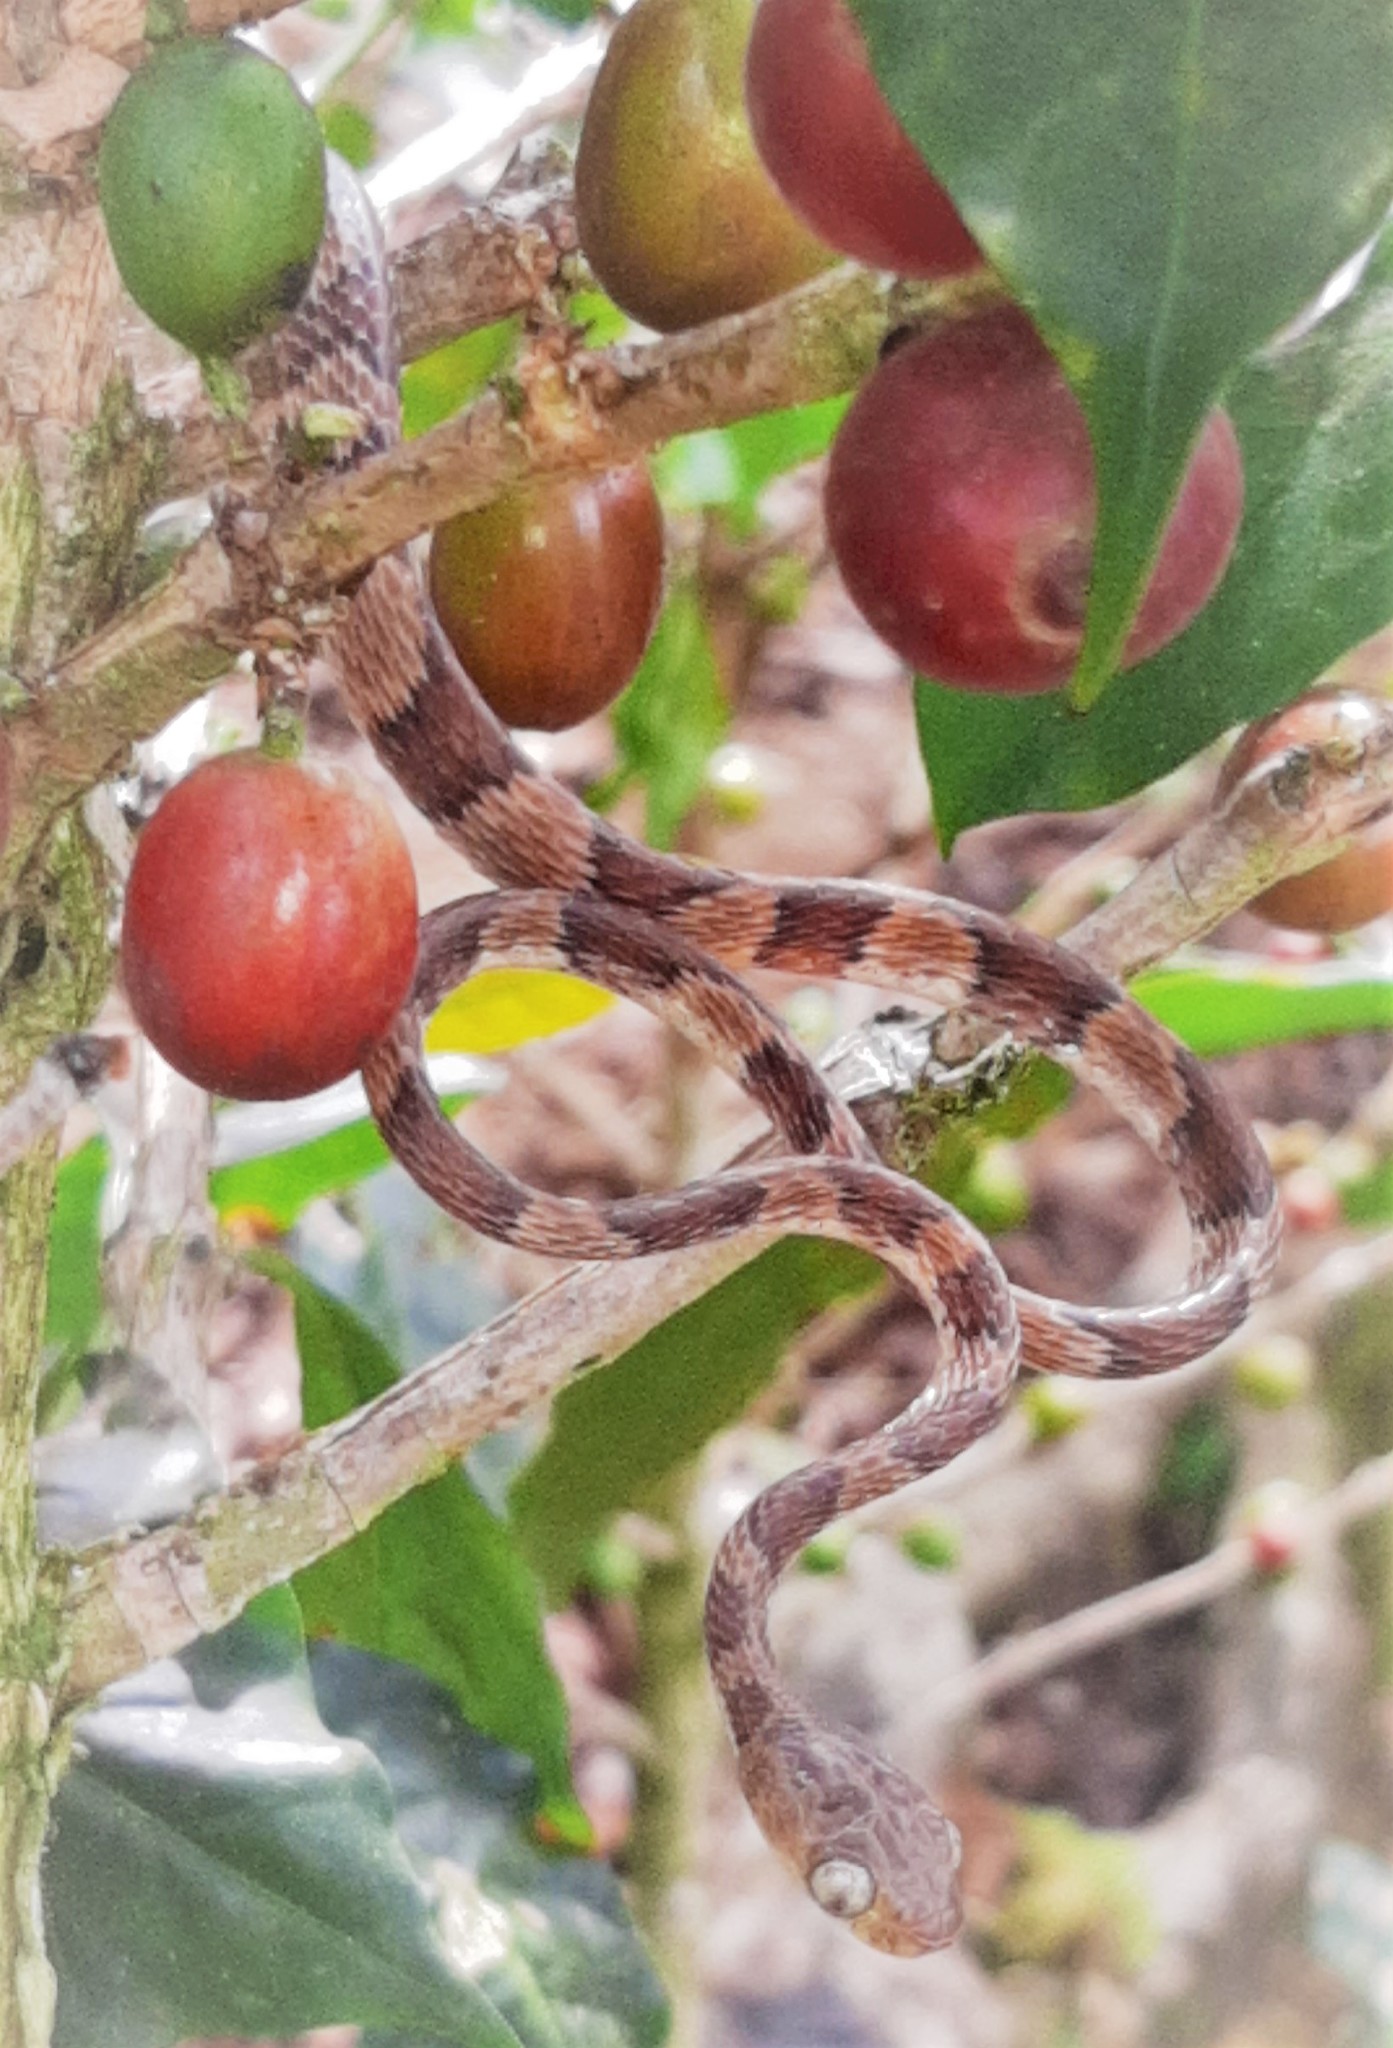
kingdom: Animalia
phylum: Chordata
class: Squamata
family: Colubridae
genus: Imantodes
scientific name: Imantodes cenchoa
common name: Blunthead tree snake
